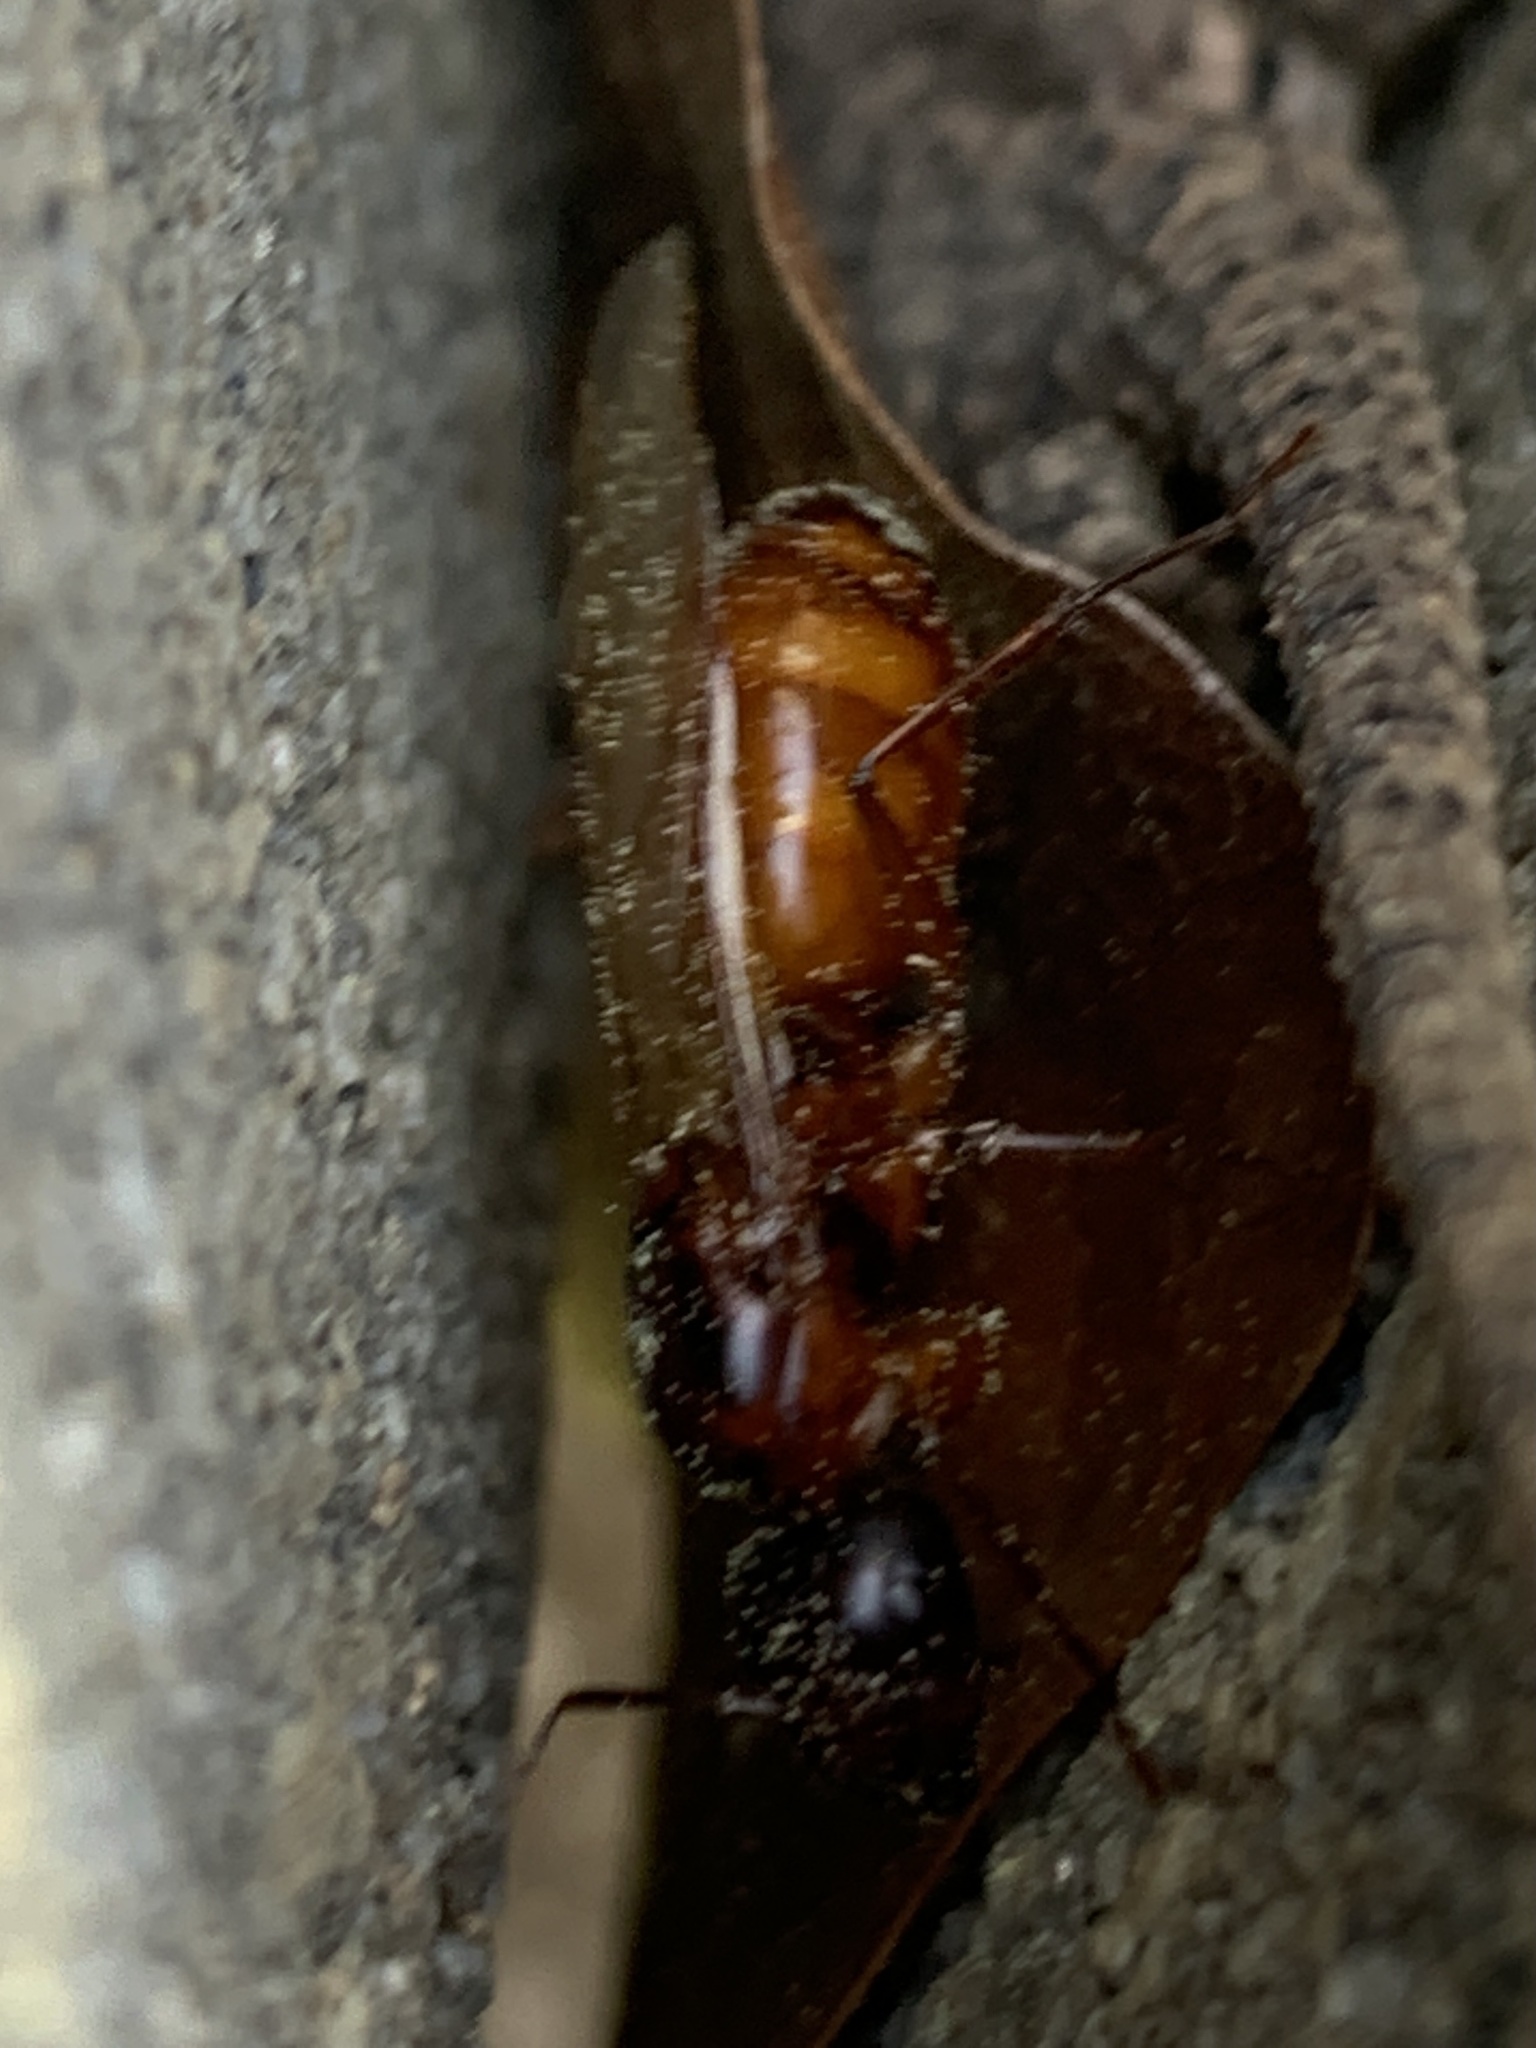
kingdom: Animalia
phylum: Arthropoda
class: Insecta
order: Hymenoptera
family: Formicidae
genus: Camponotus
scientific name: Camponotus americanus
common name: American carpenter ant
